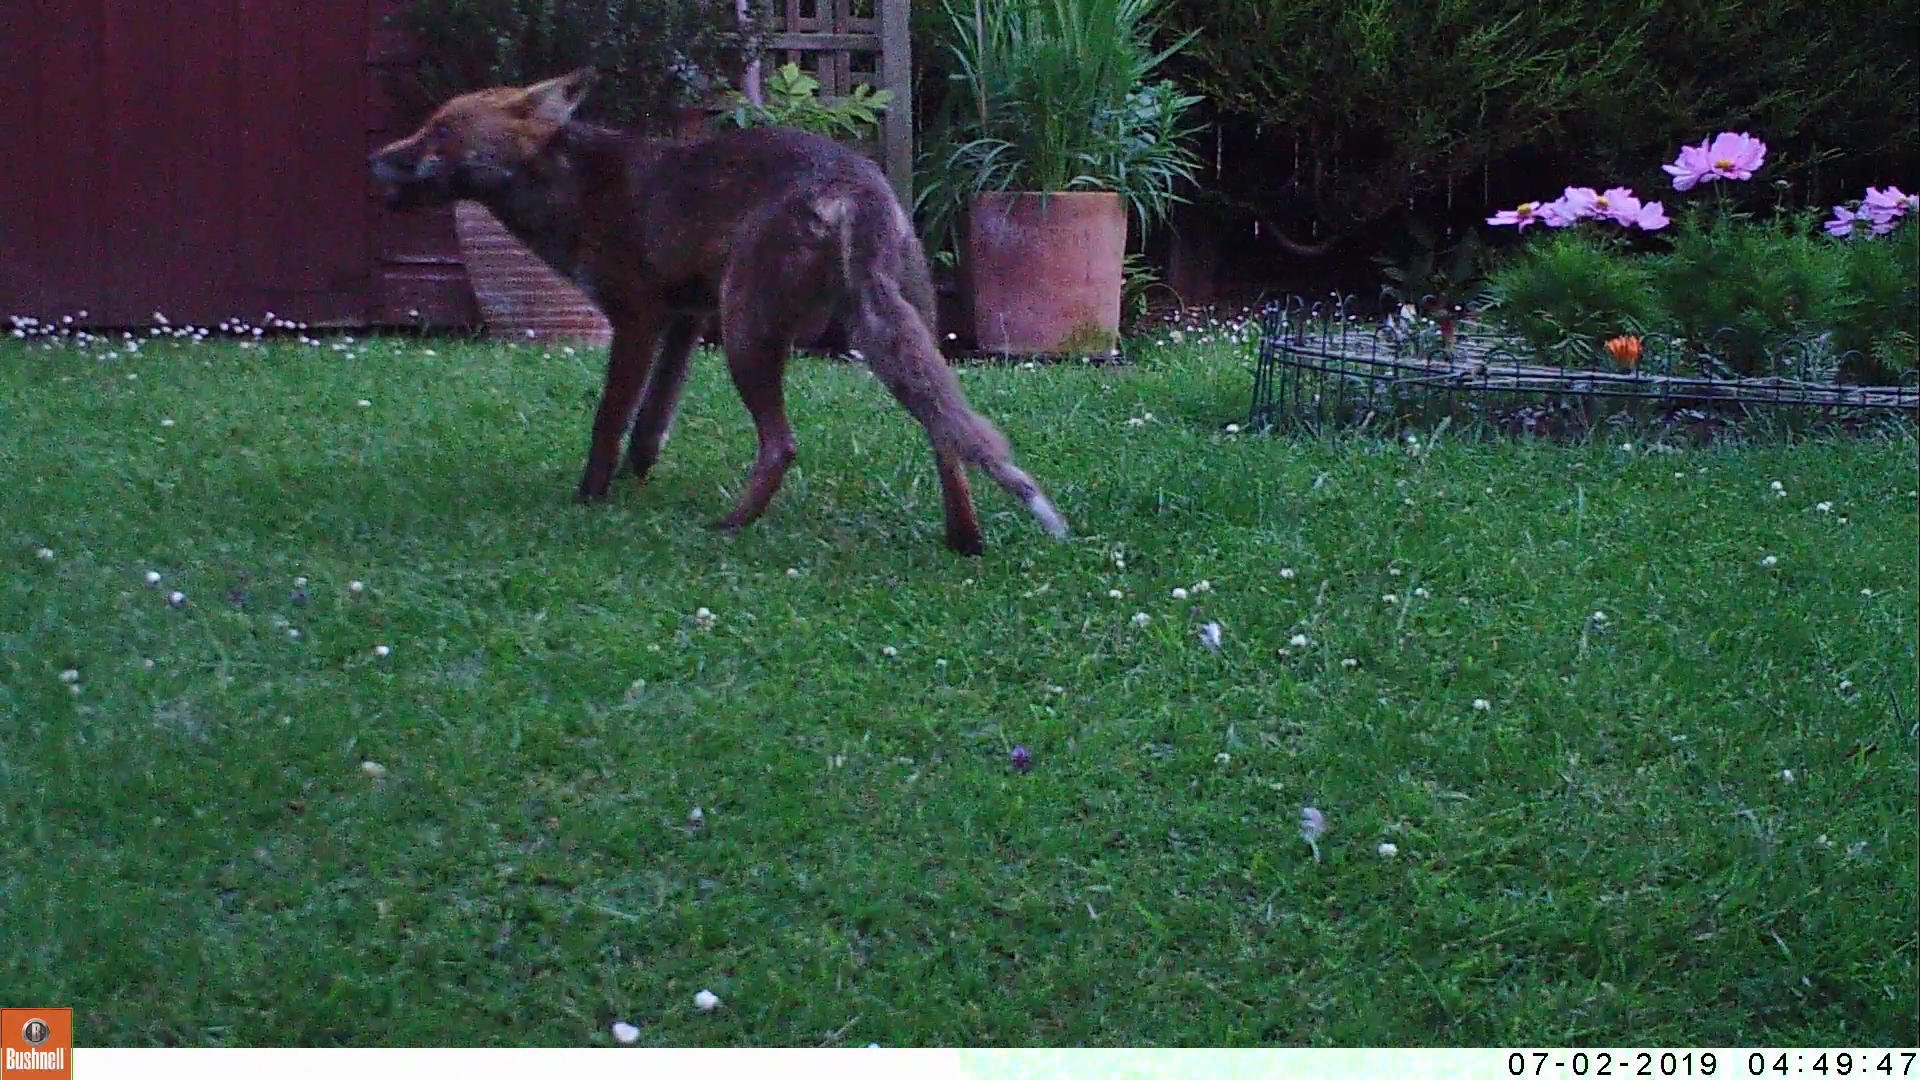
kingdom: Animalia
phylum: Chordata
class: Mammalia
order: Carnivora
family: Canidae
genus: Vulpes
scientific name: Vulpes vulpes
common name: Red fox
